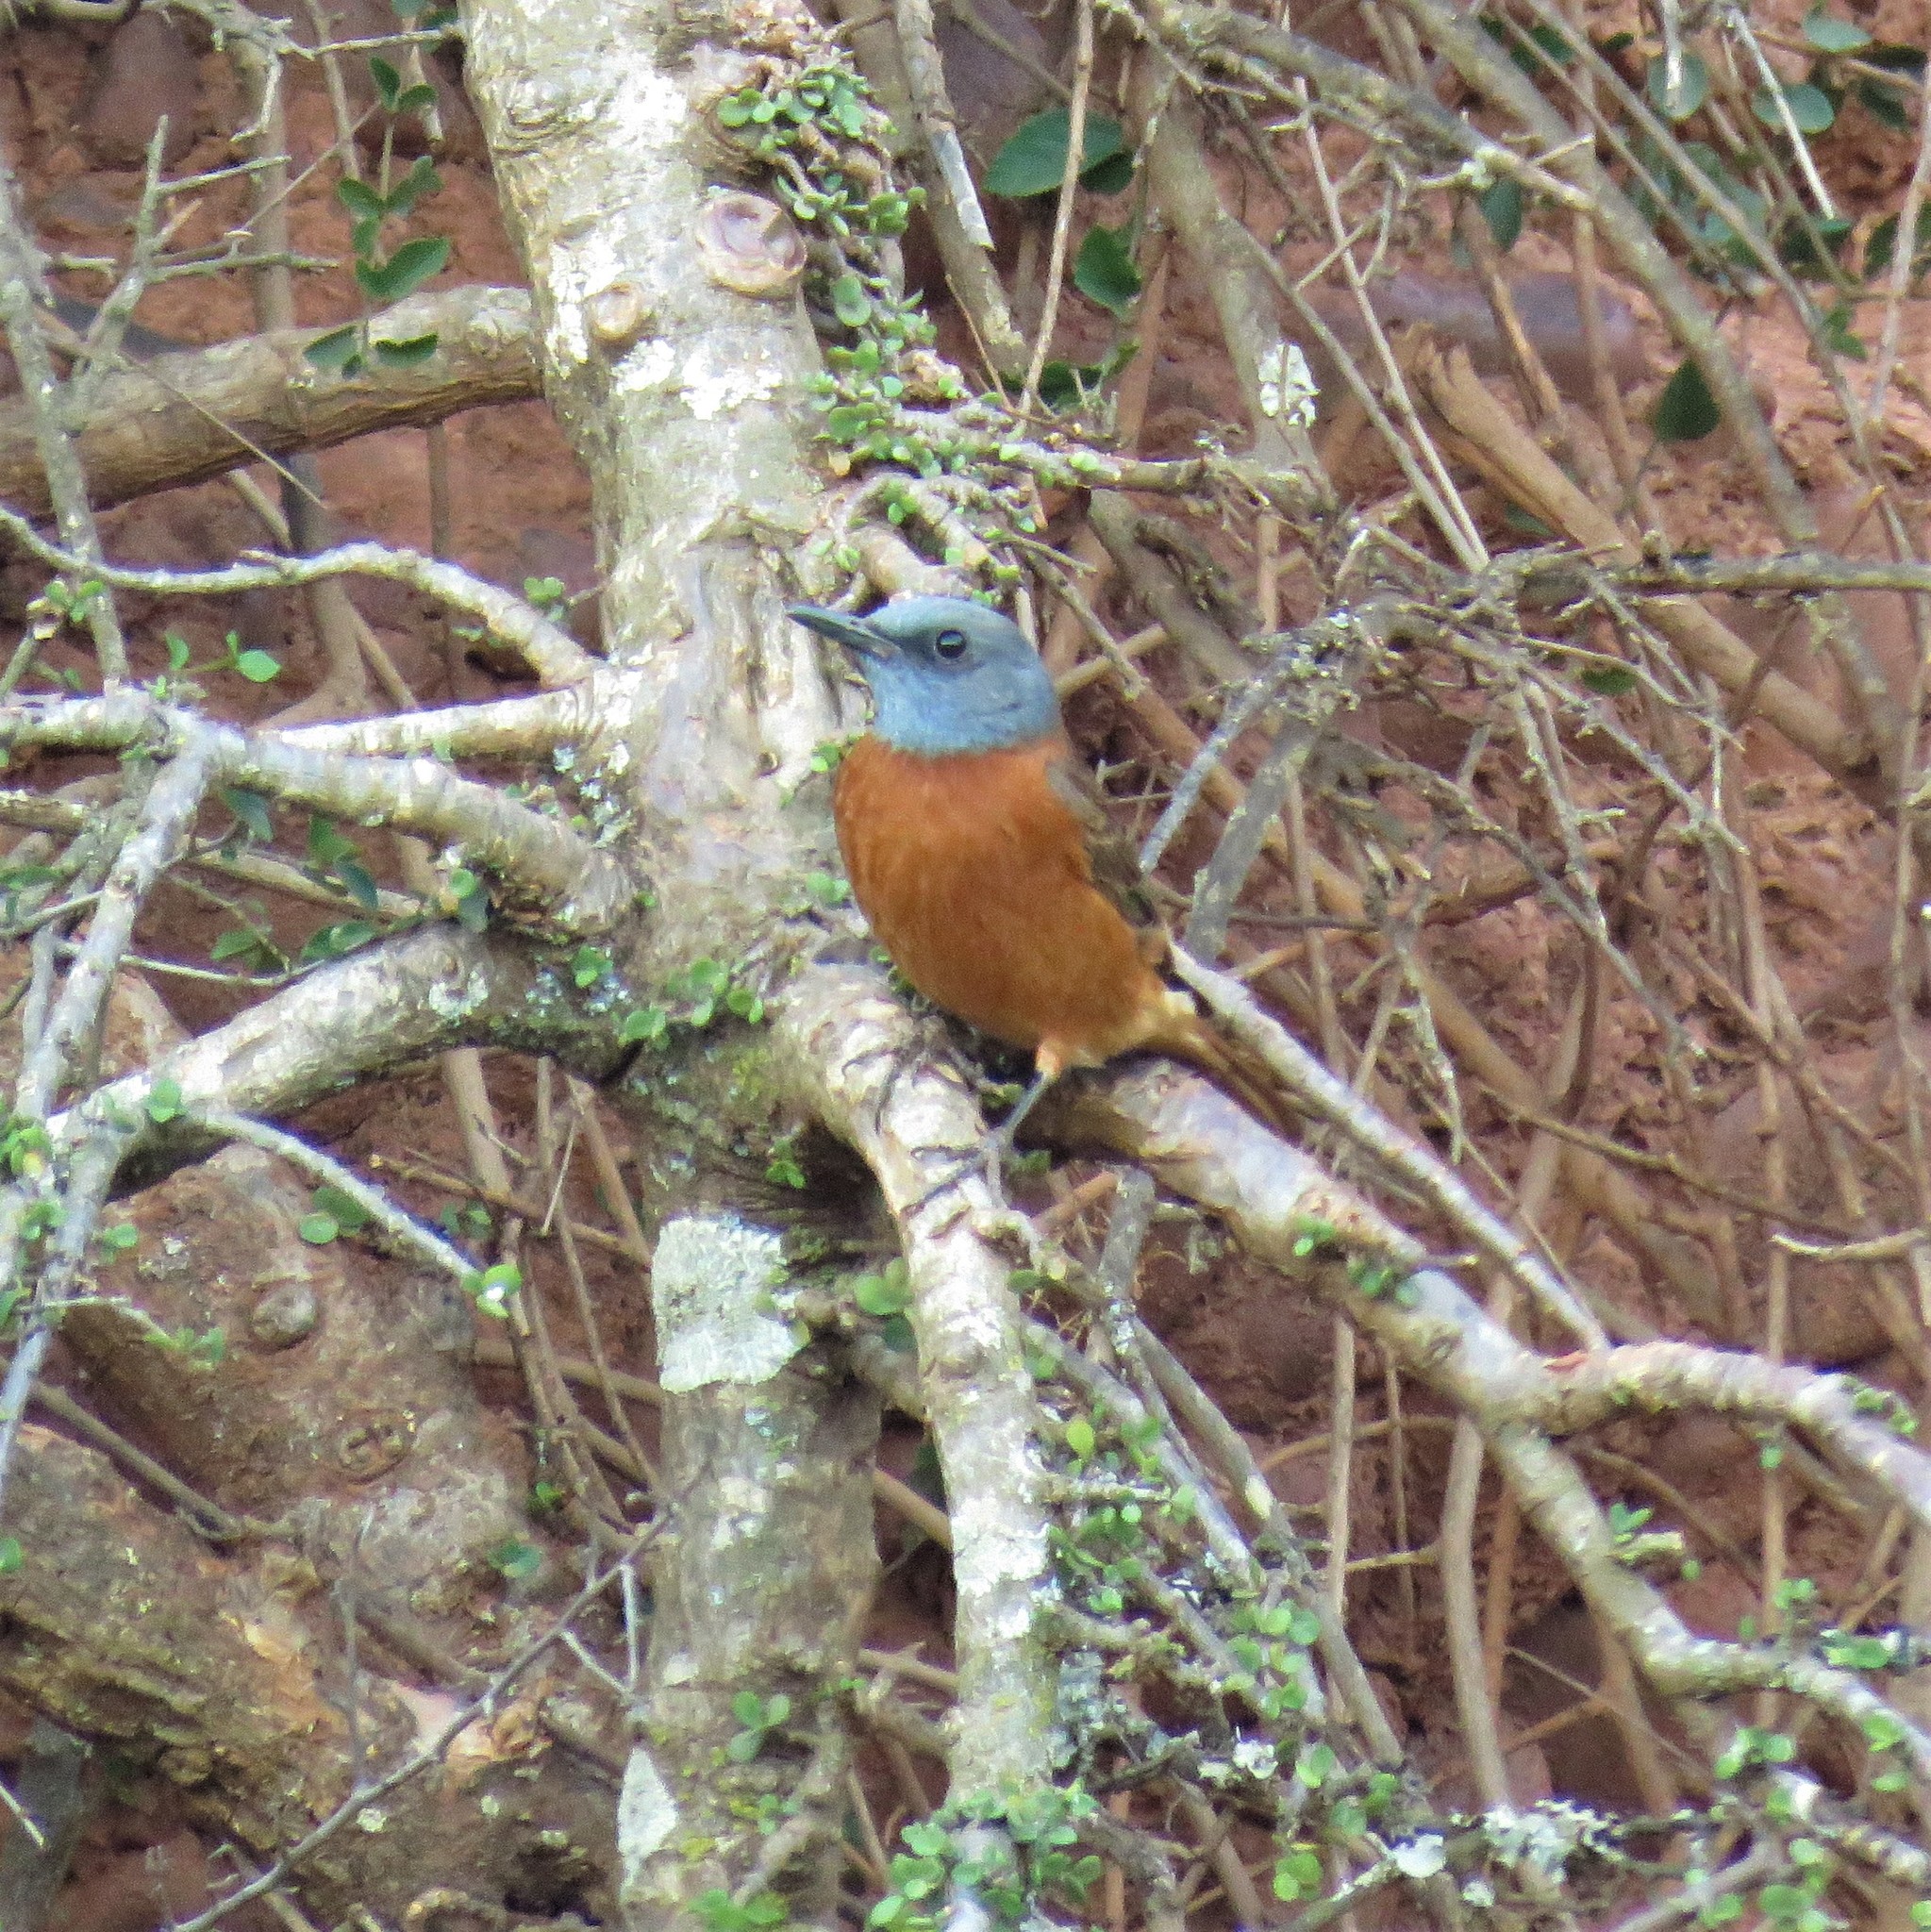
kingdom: Animalia
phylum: Chordata
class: Aves
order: Passeriformes
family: Muscicapidae
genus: Monticola
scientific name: Monticola rupestris
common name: Cape rock thrush
